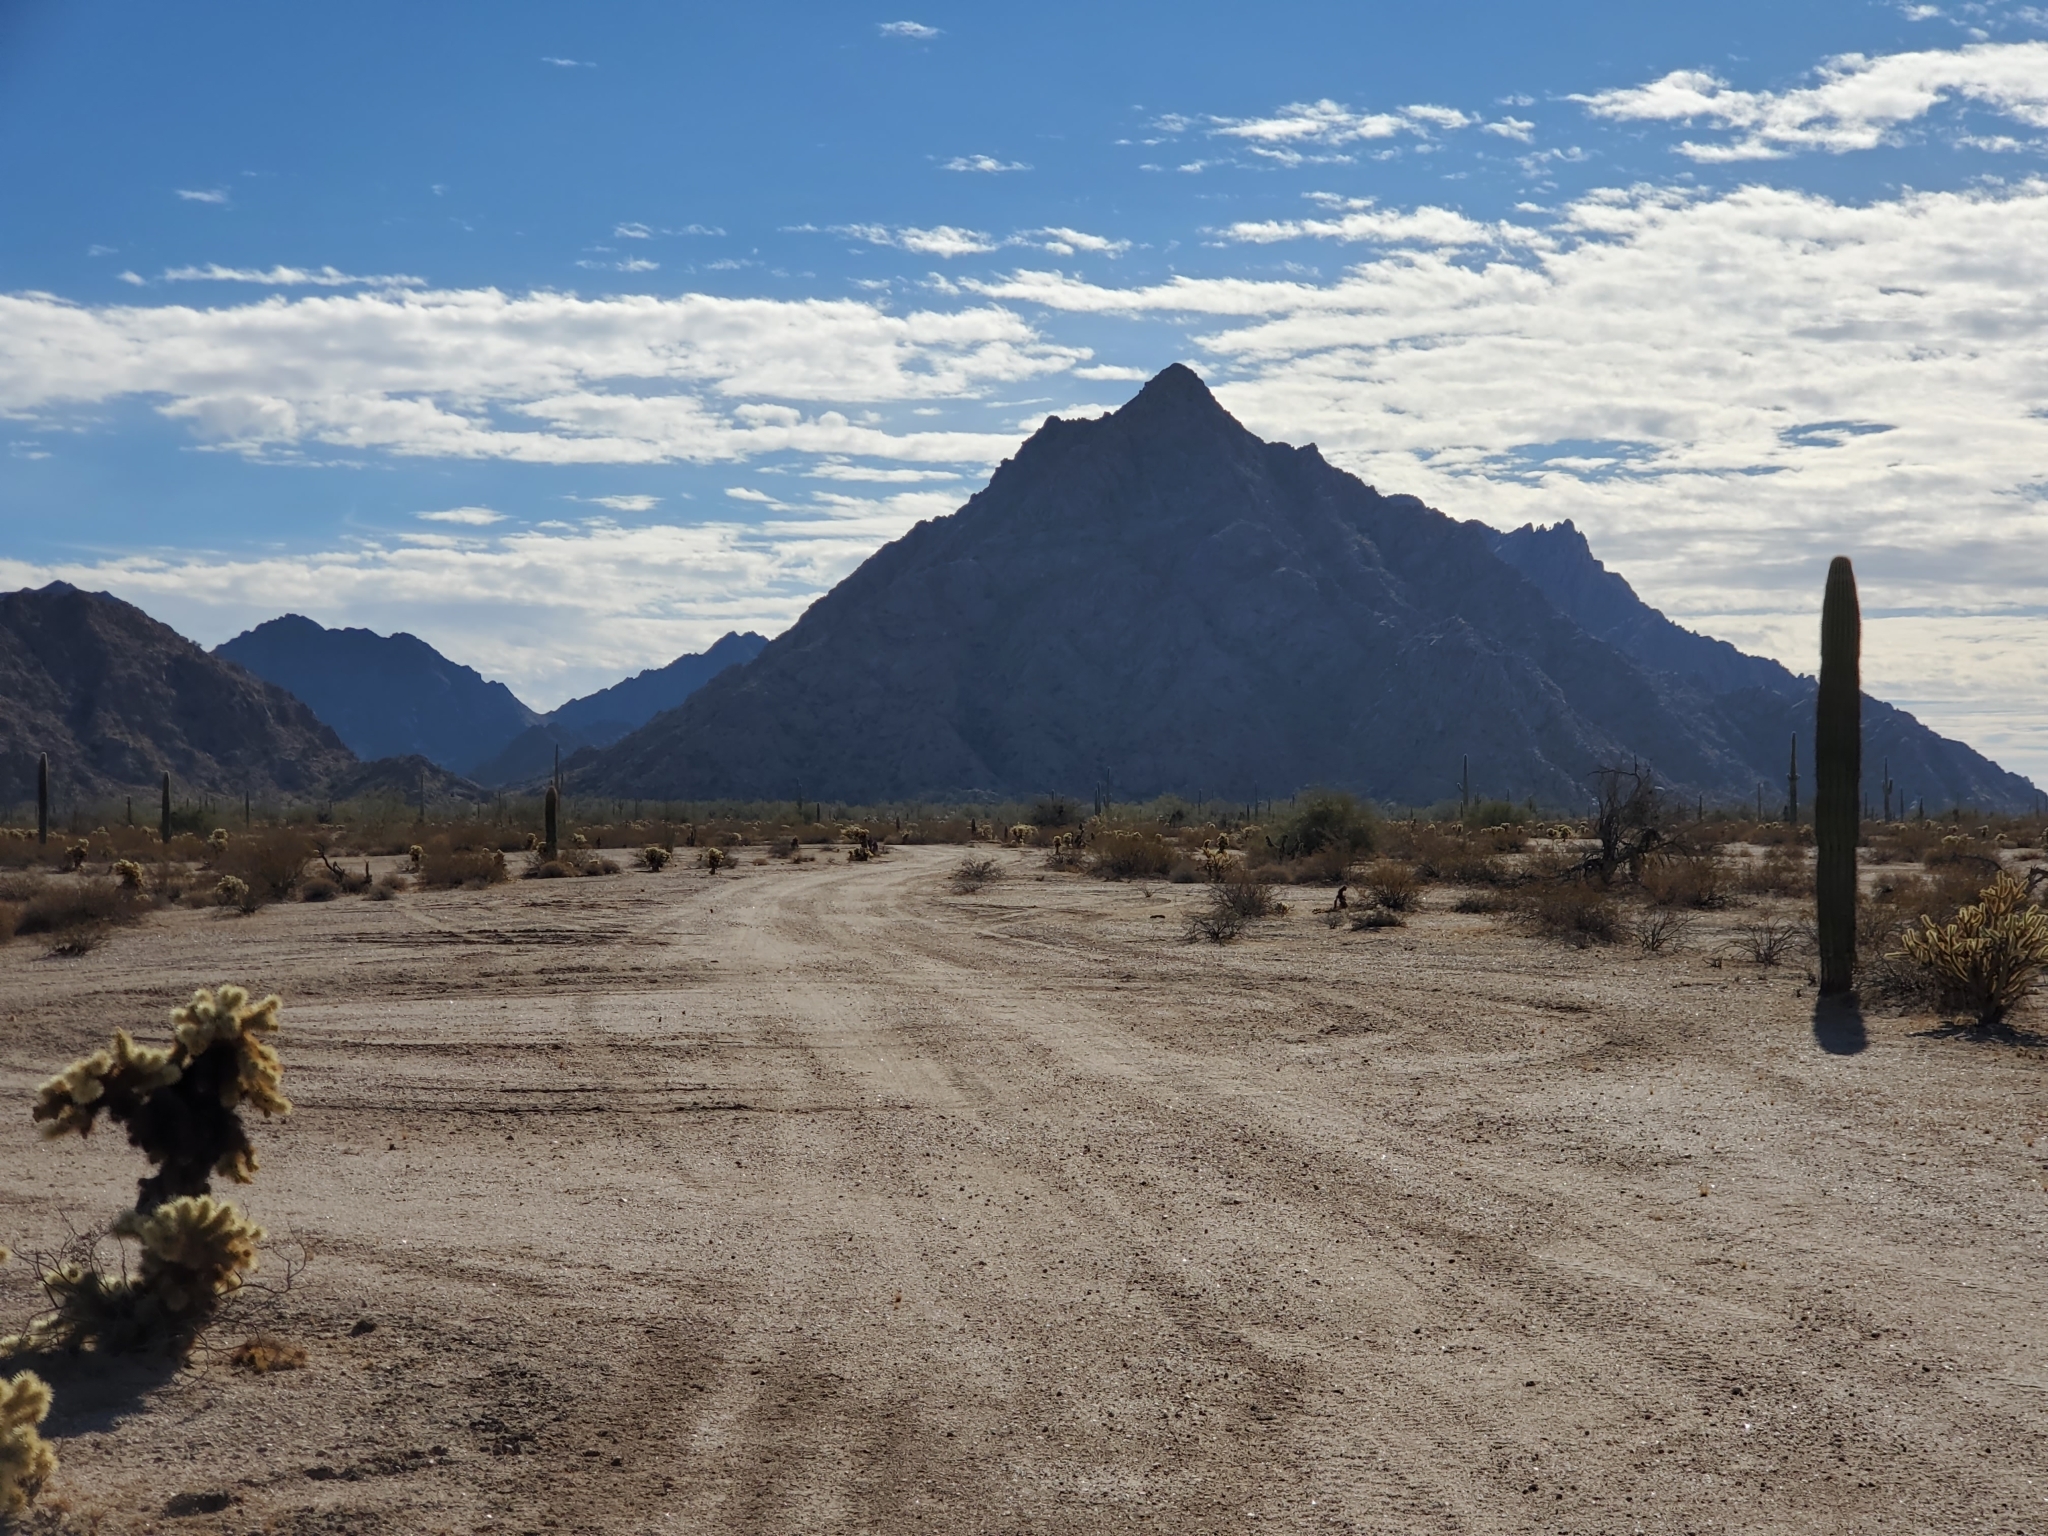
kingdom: Plantae
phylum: Tracheophyta
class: Magnoliopsida
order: Caryophyllales
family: Cactaceae
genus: Carnegiea
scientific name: Carnegiea gigantea
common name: Saguaro
